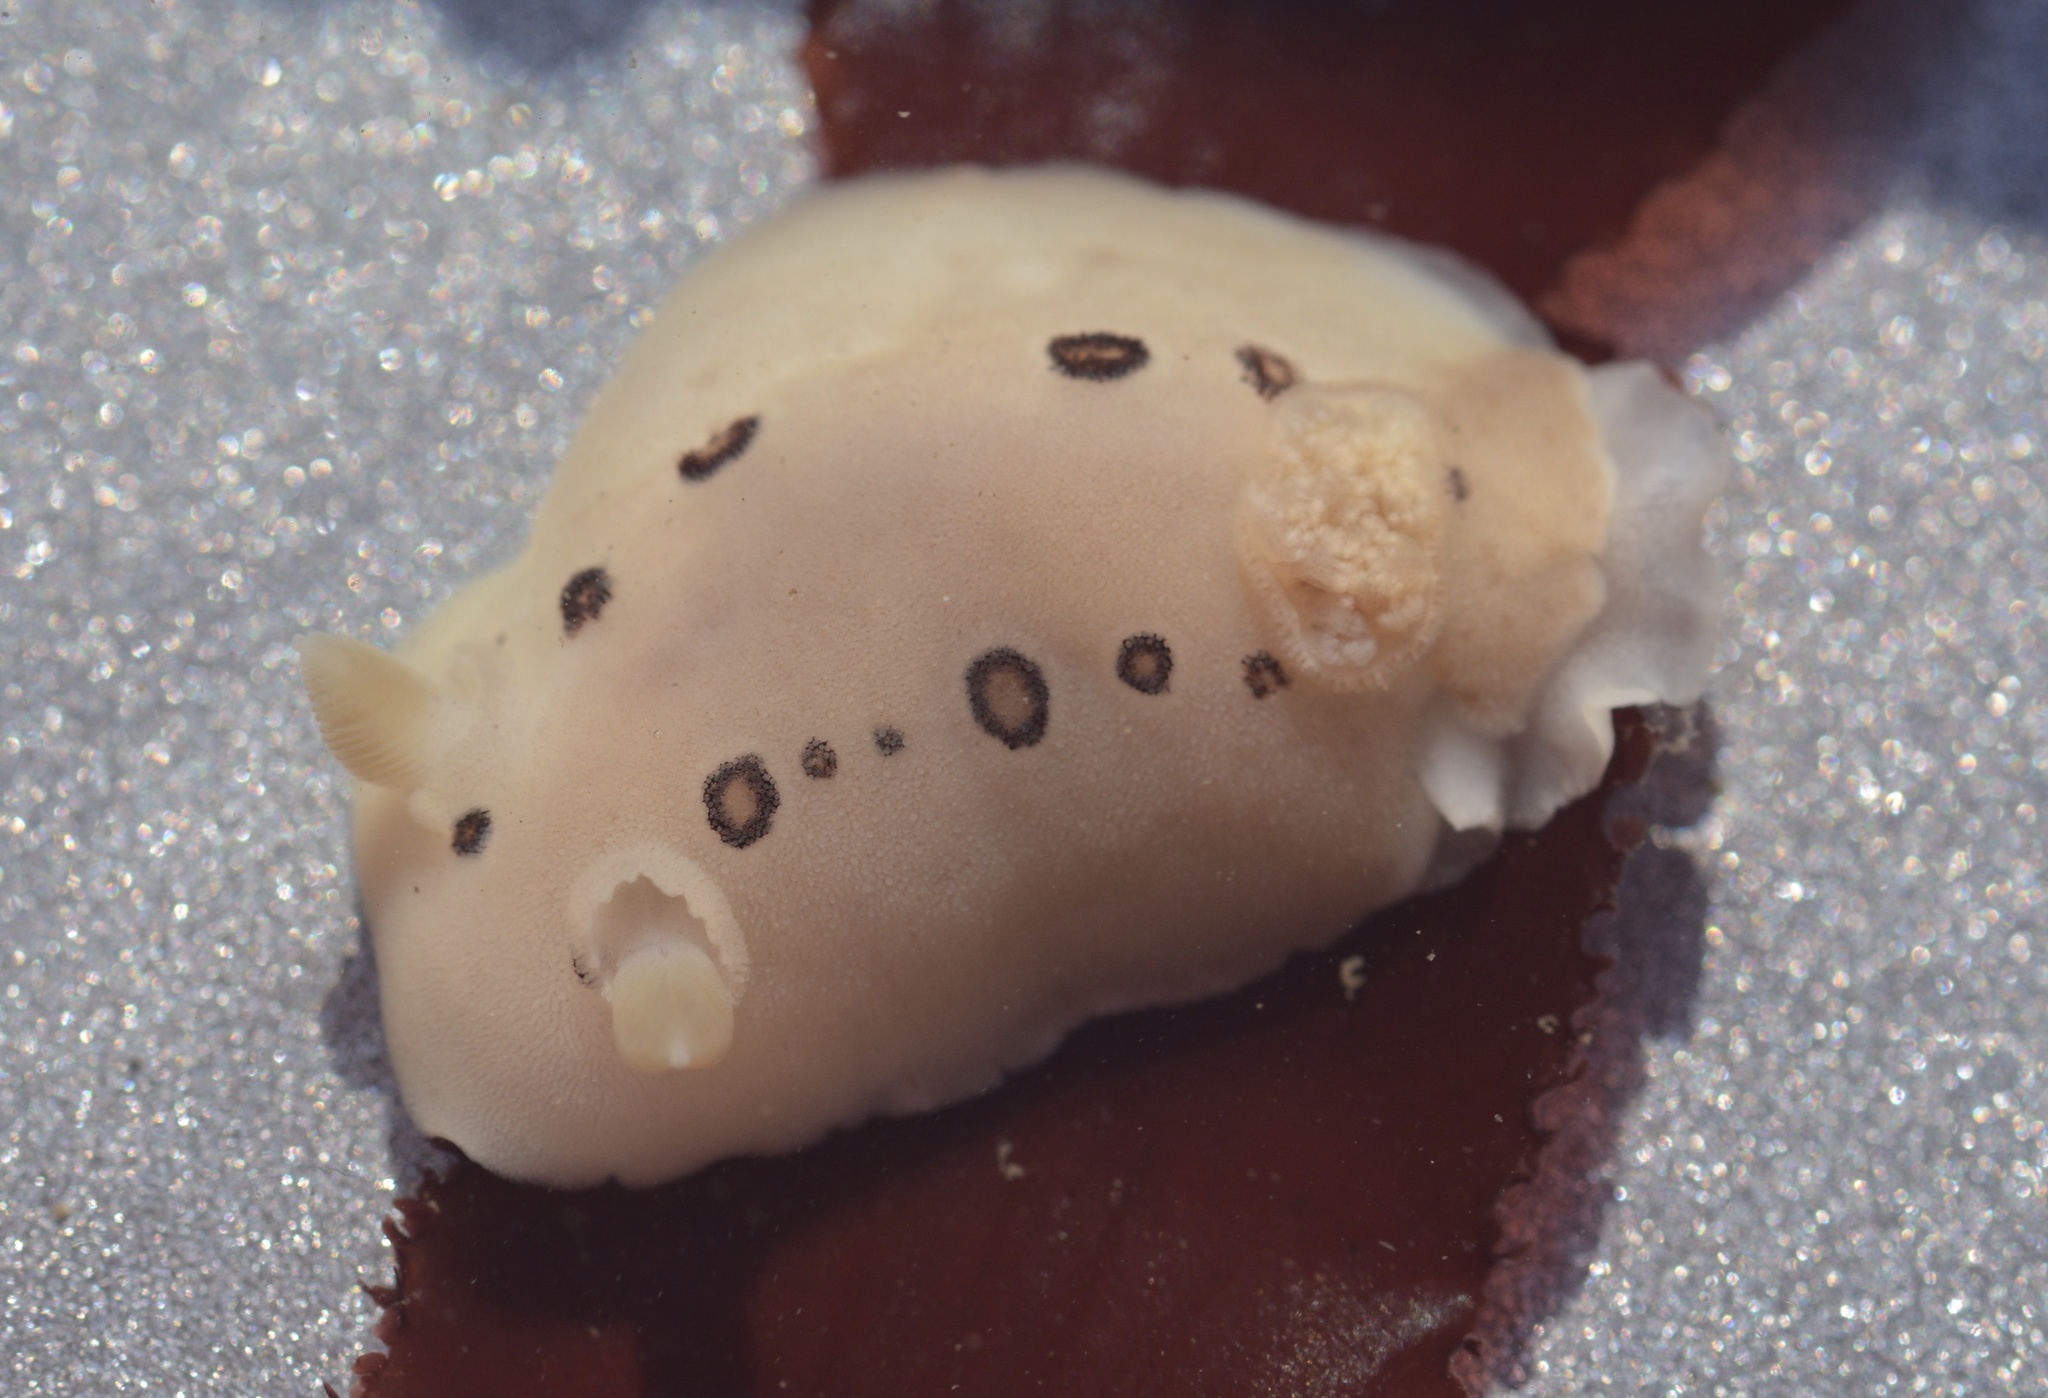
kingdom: Animalia
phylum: Mollusca
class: Gastropoda
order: Nudibranchia
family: Discodorididae
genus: Diaulula
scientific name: Diaulula sandiegensis
